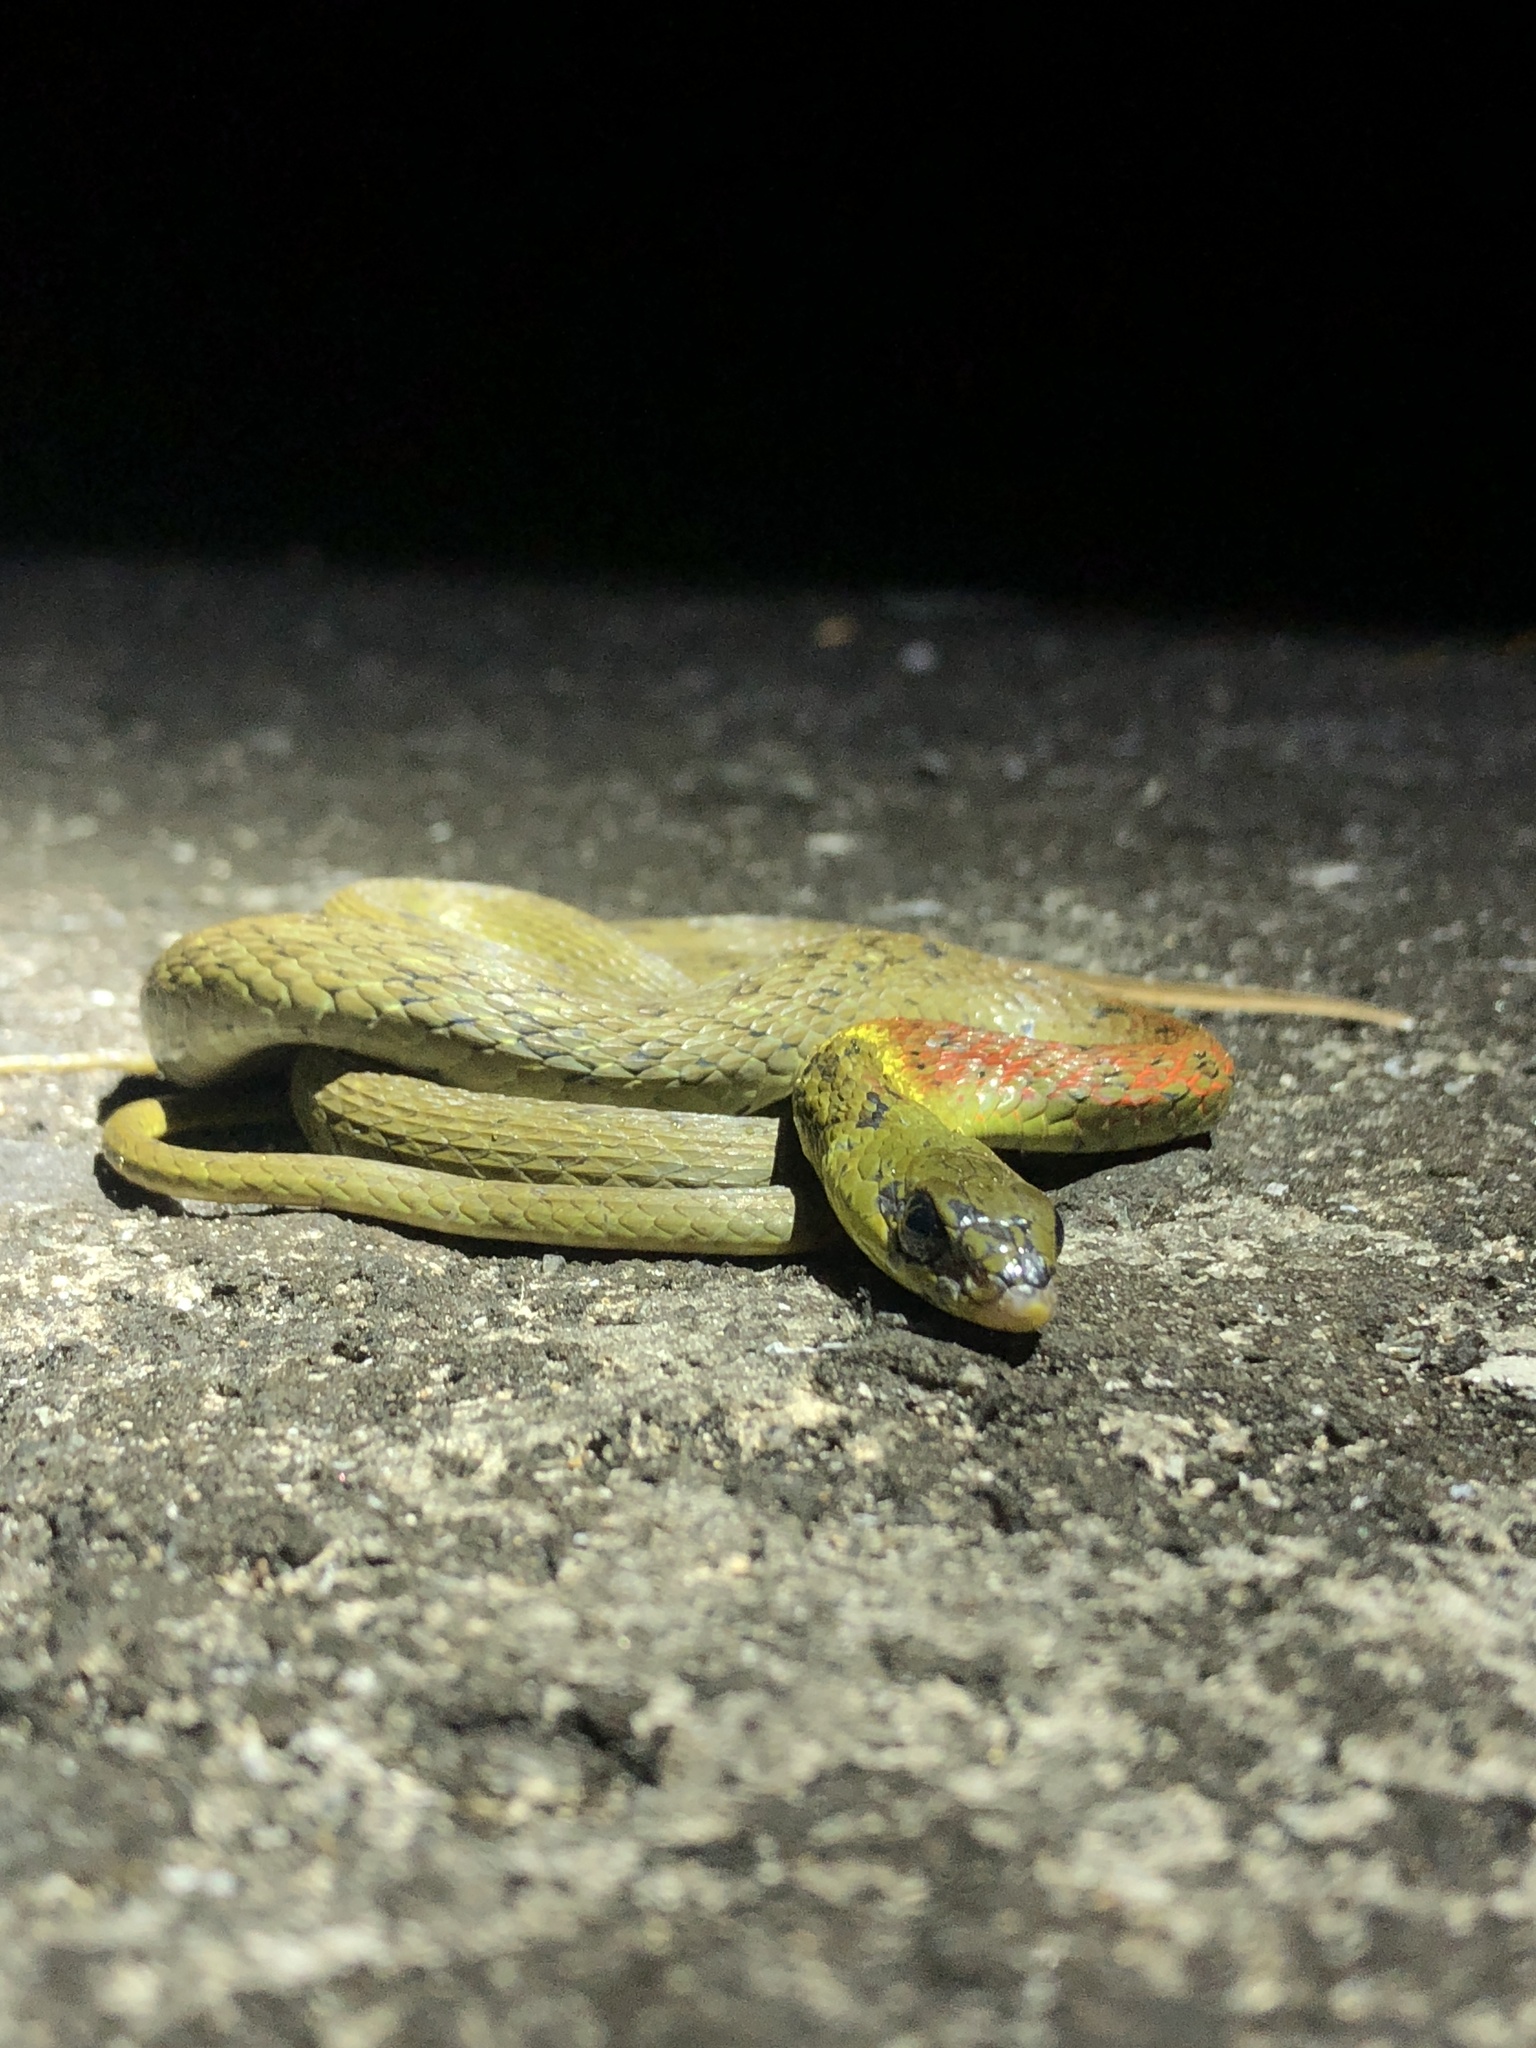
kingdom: Animalia
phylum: Chordata
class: Squamata
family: Colubridae
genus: Rhabdophis
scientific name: Rhabdophis helleri
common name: Heller’s red-necked keelback
